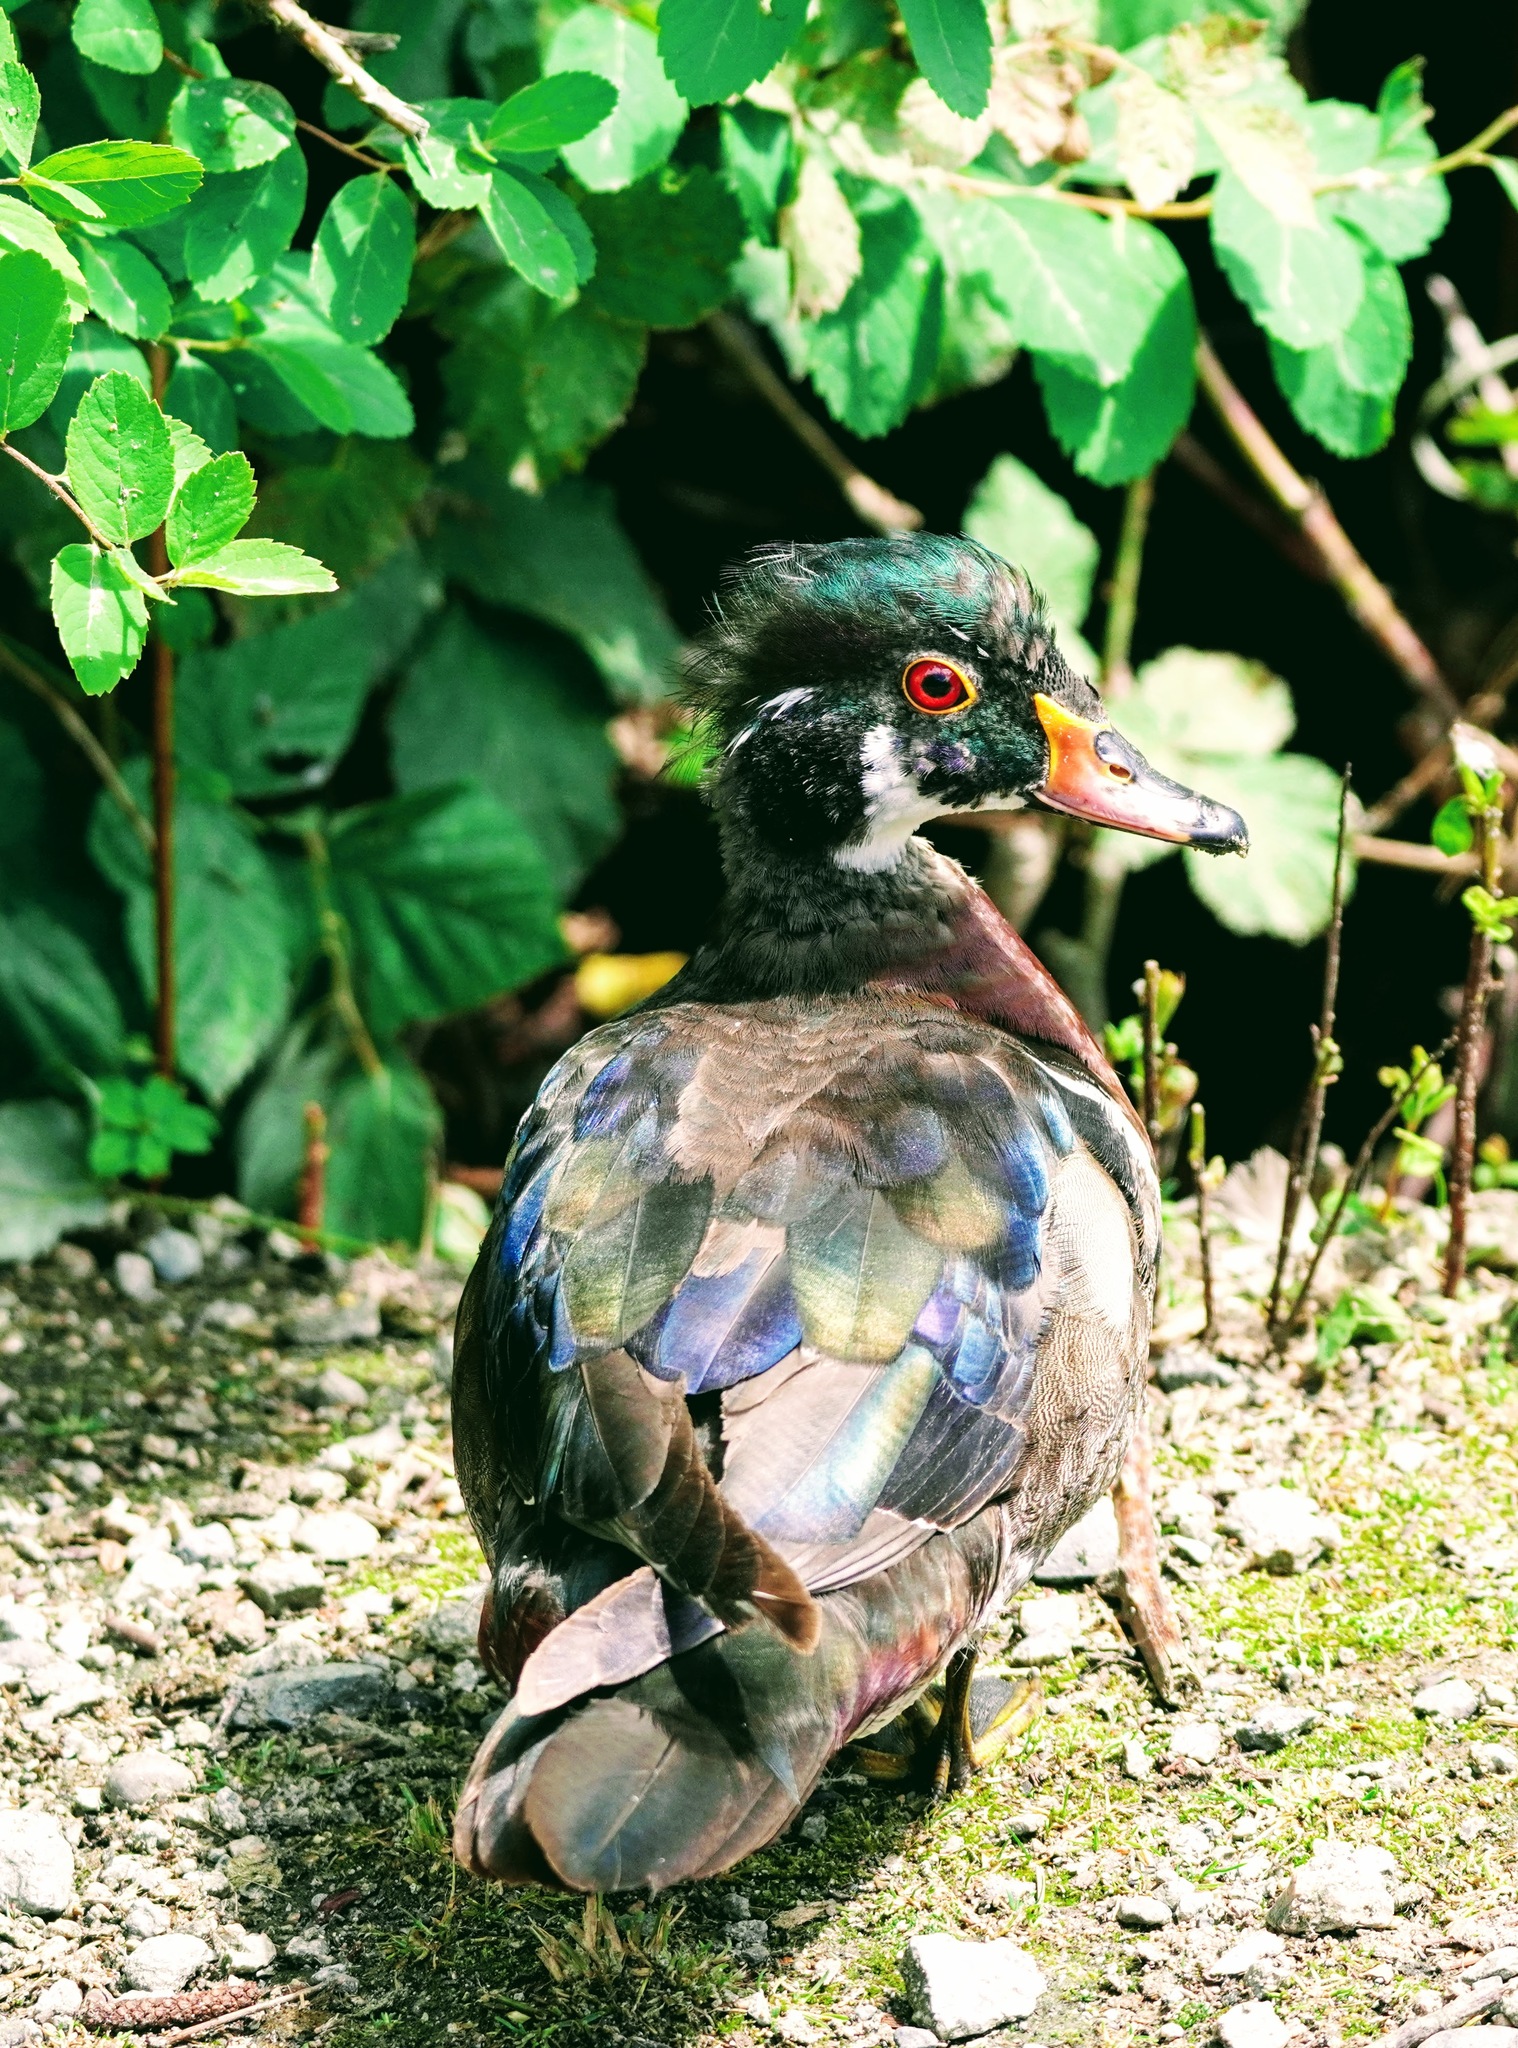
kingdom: Animalia
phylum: Chordata
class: Aves
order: Anseriformes
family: Anatidae
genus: Aix
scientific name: Aix sponsa
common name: Wood duck
